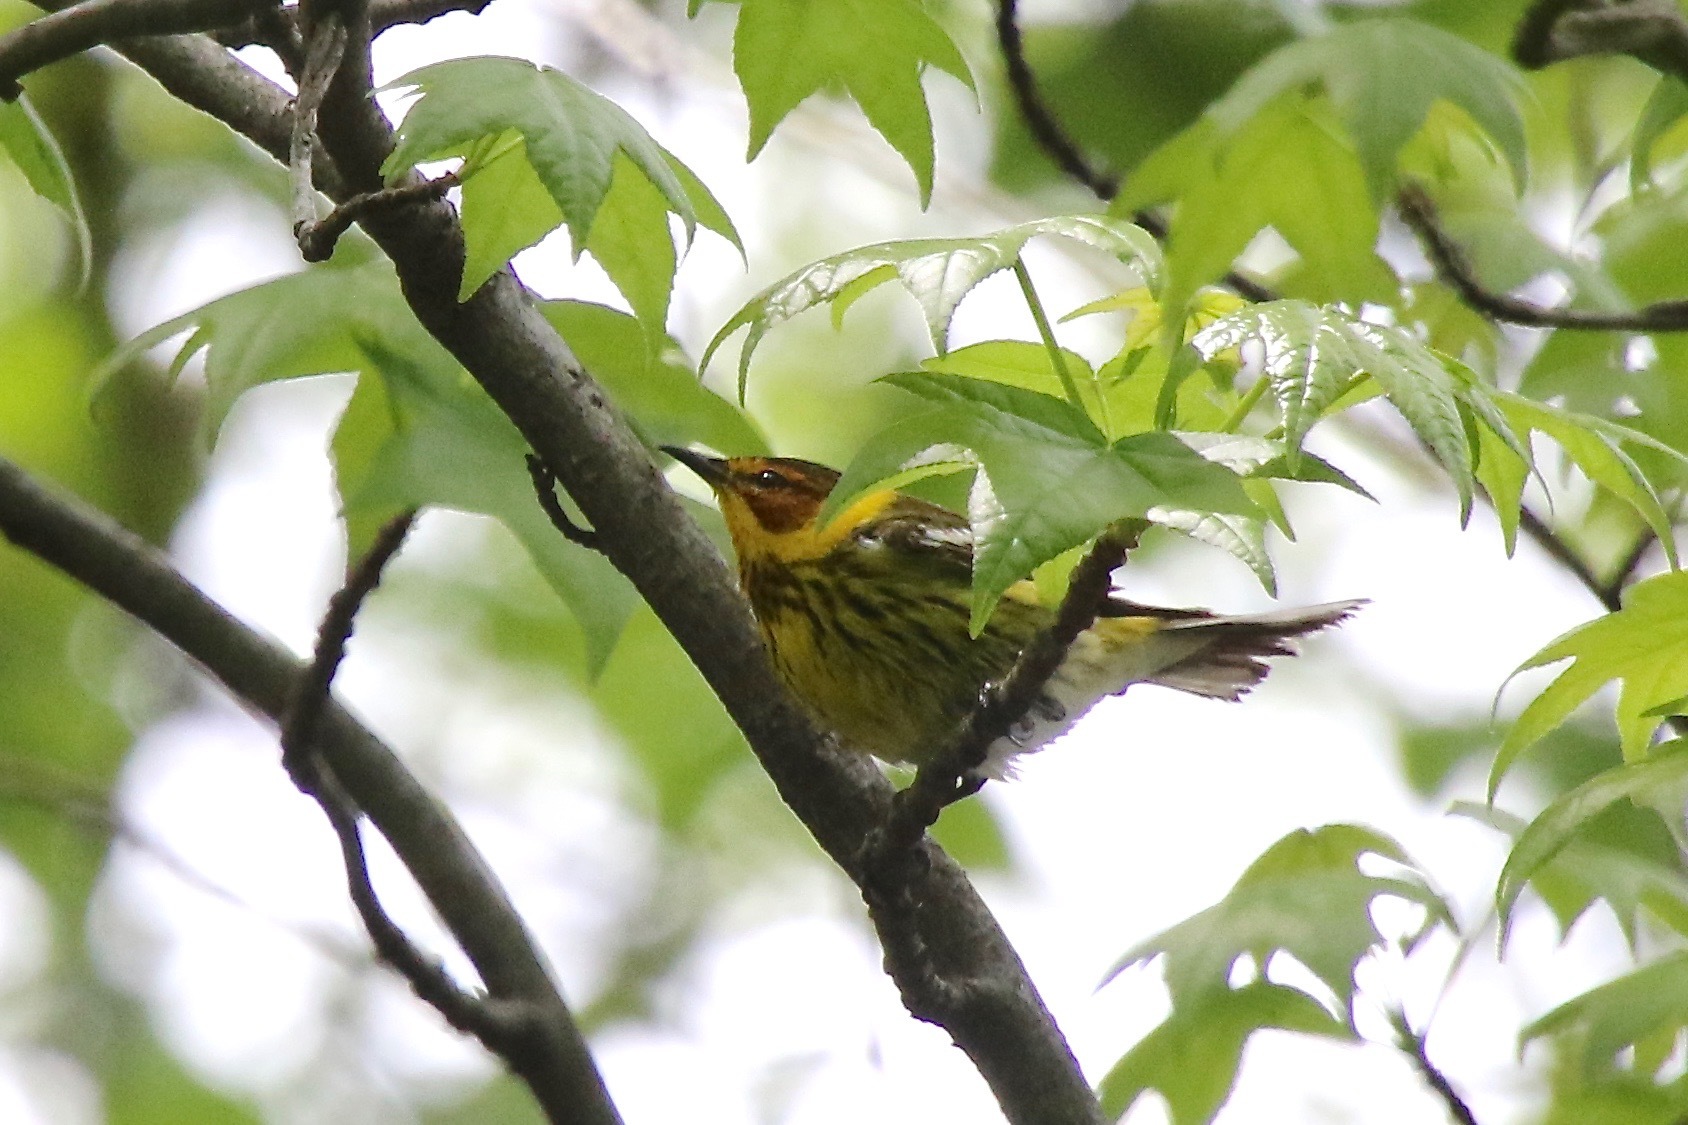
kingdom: Animalia
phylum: Chordata
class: Aves
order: Passeriformes
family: Parulidae
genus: Setophaga
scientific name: Setophaga tigrina
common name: Cape may warbler
